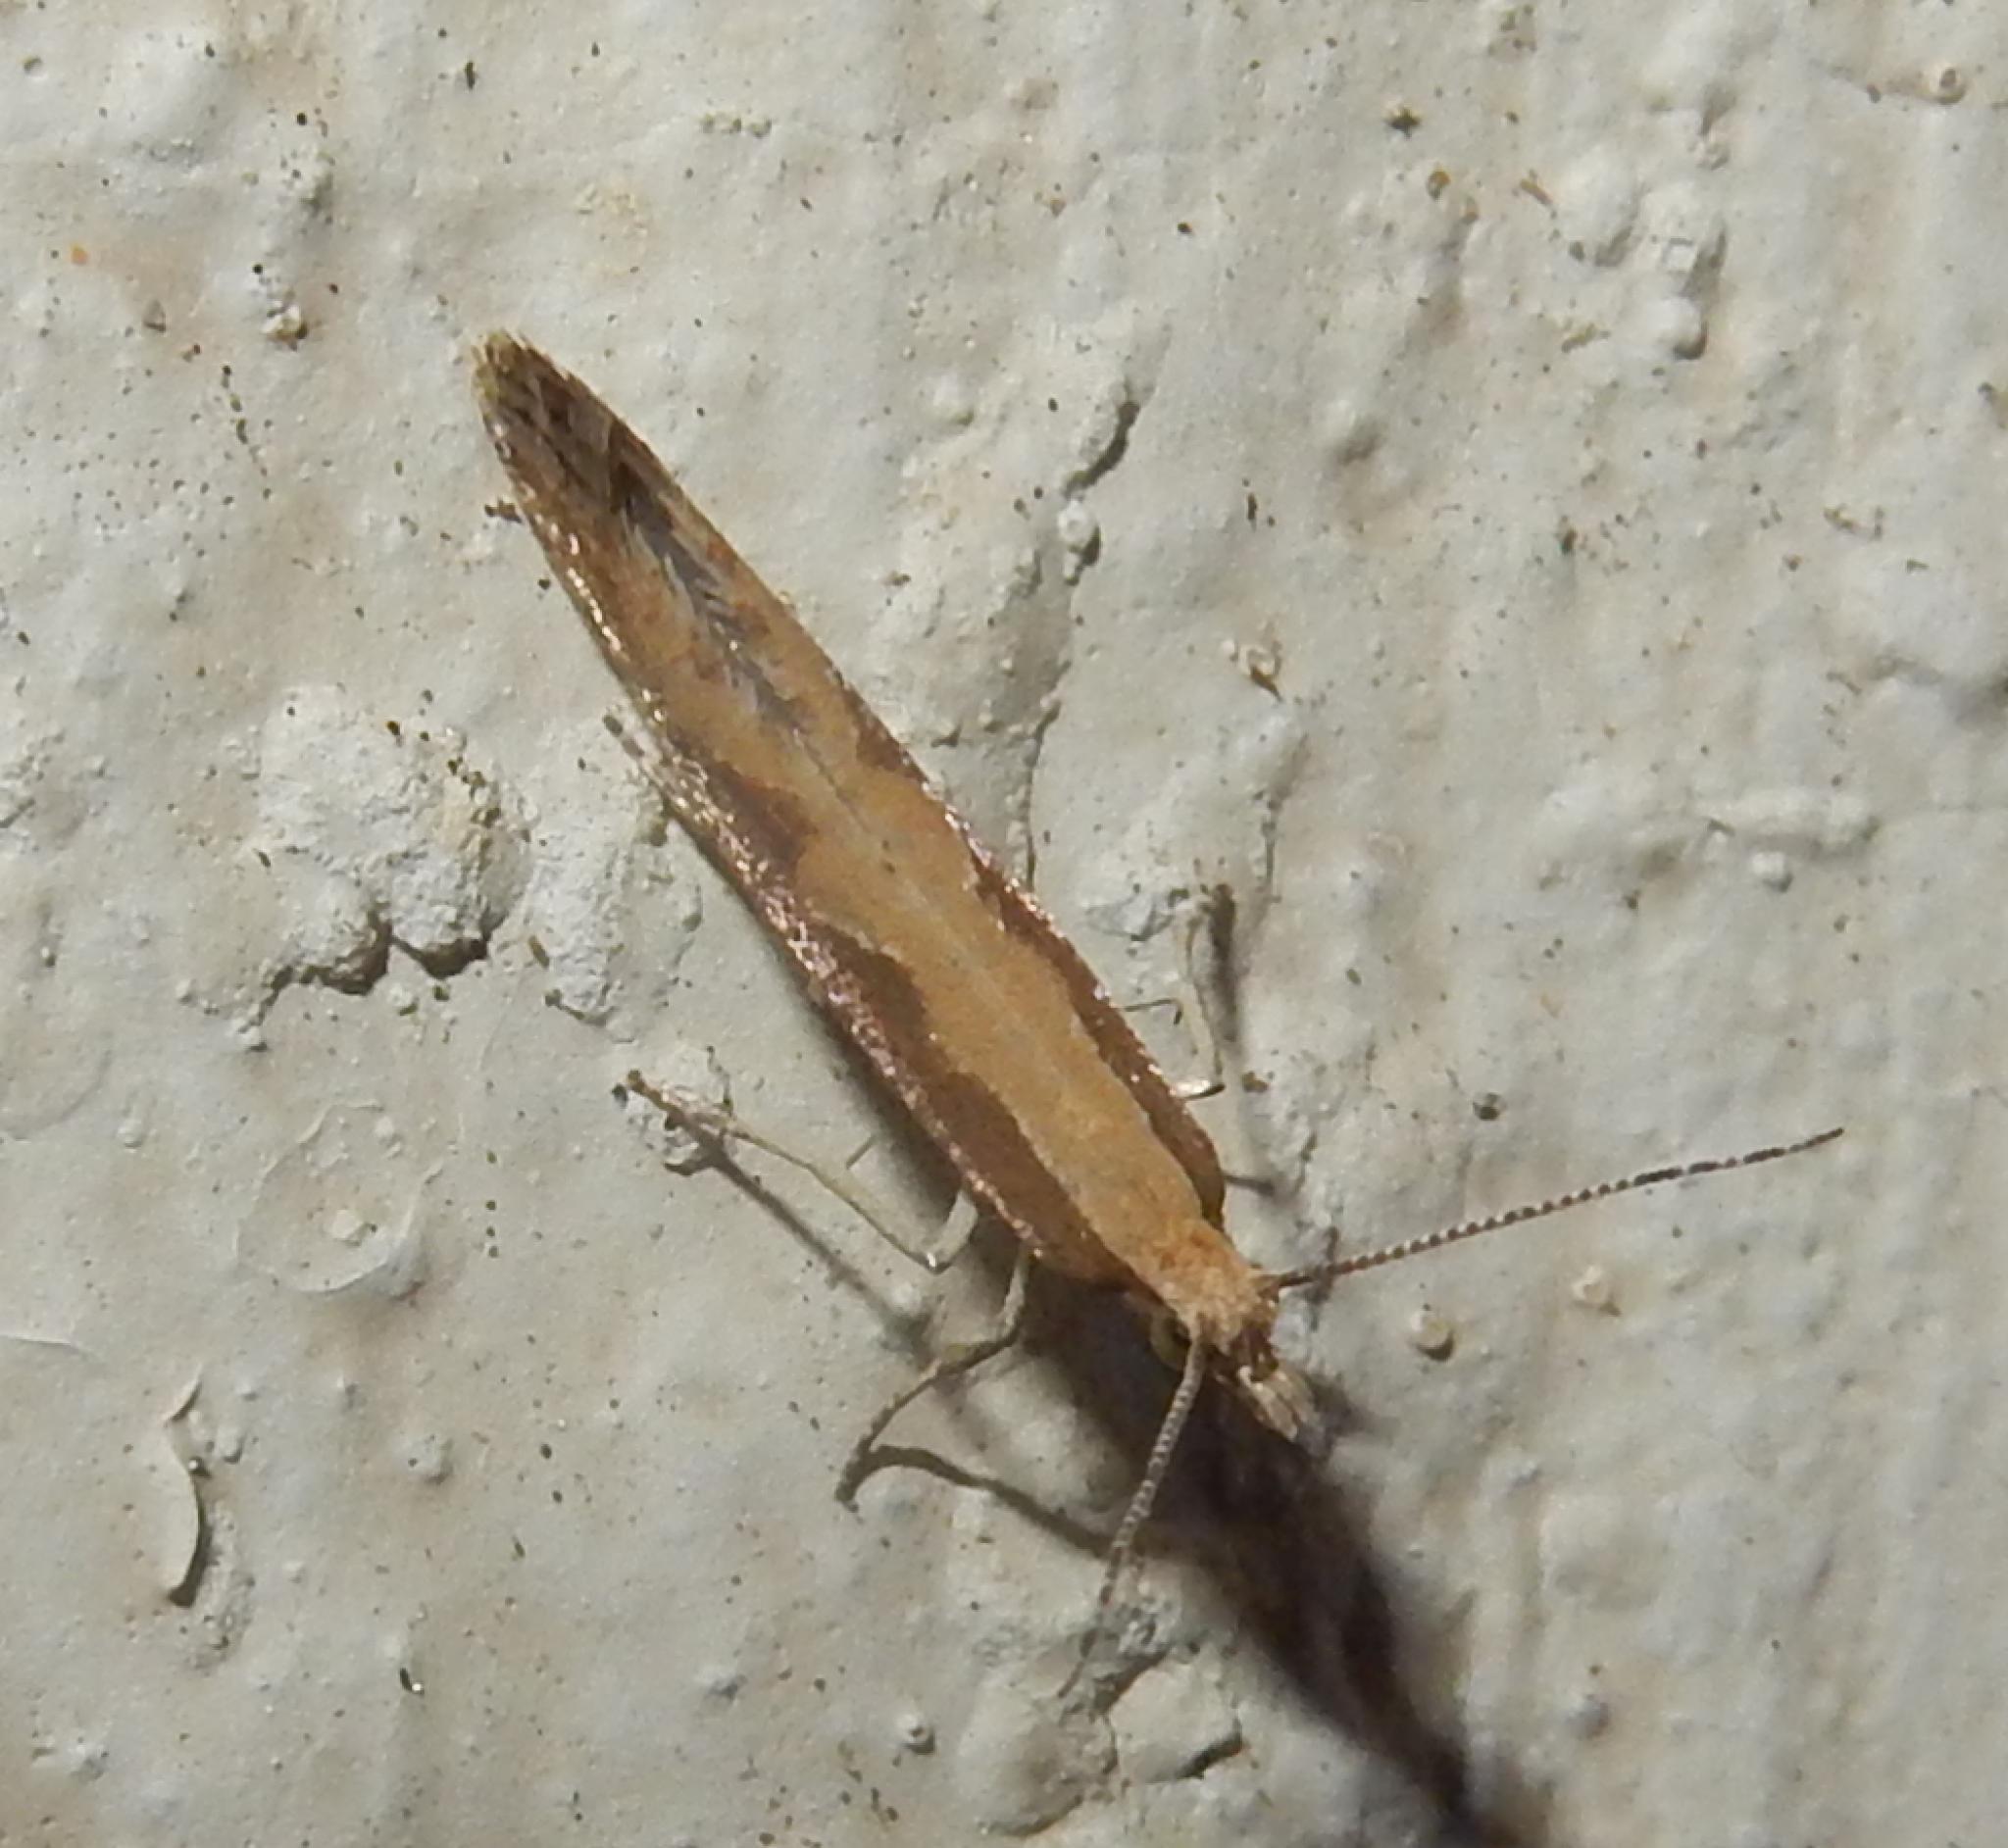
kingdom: Animalia
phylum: Arthropoda
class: Insecta
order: Lepidoptera
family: Plutellidae
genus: Plutella
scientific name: Plutella xylostella
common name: Diamond-back moth
